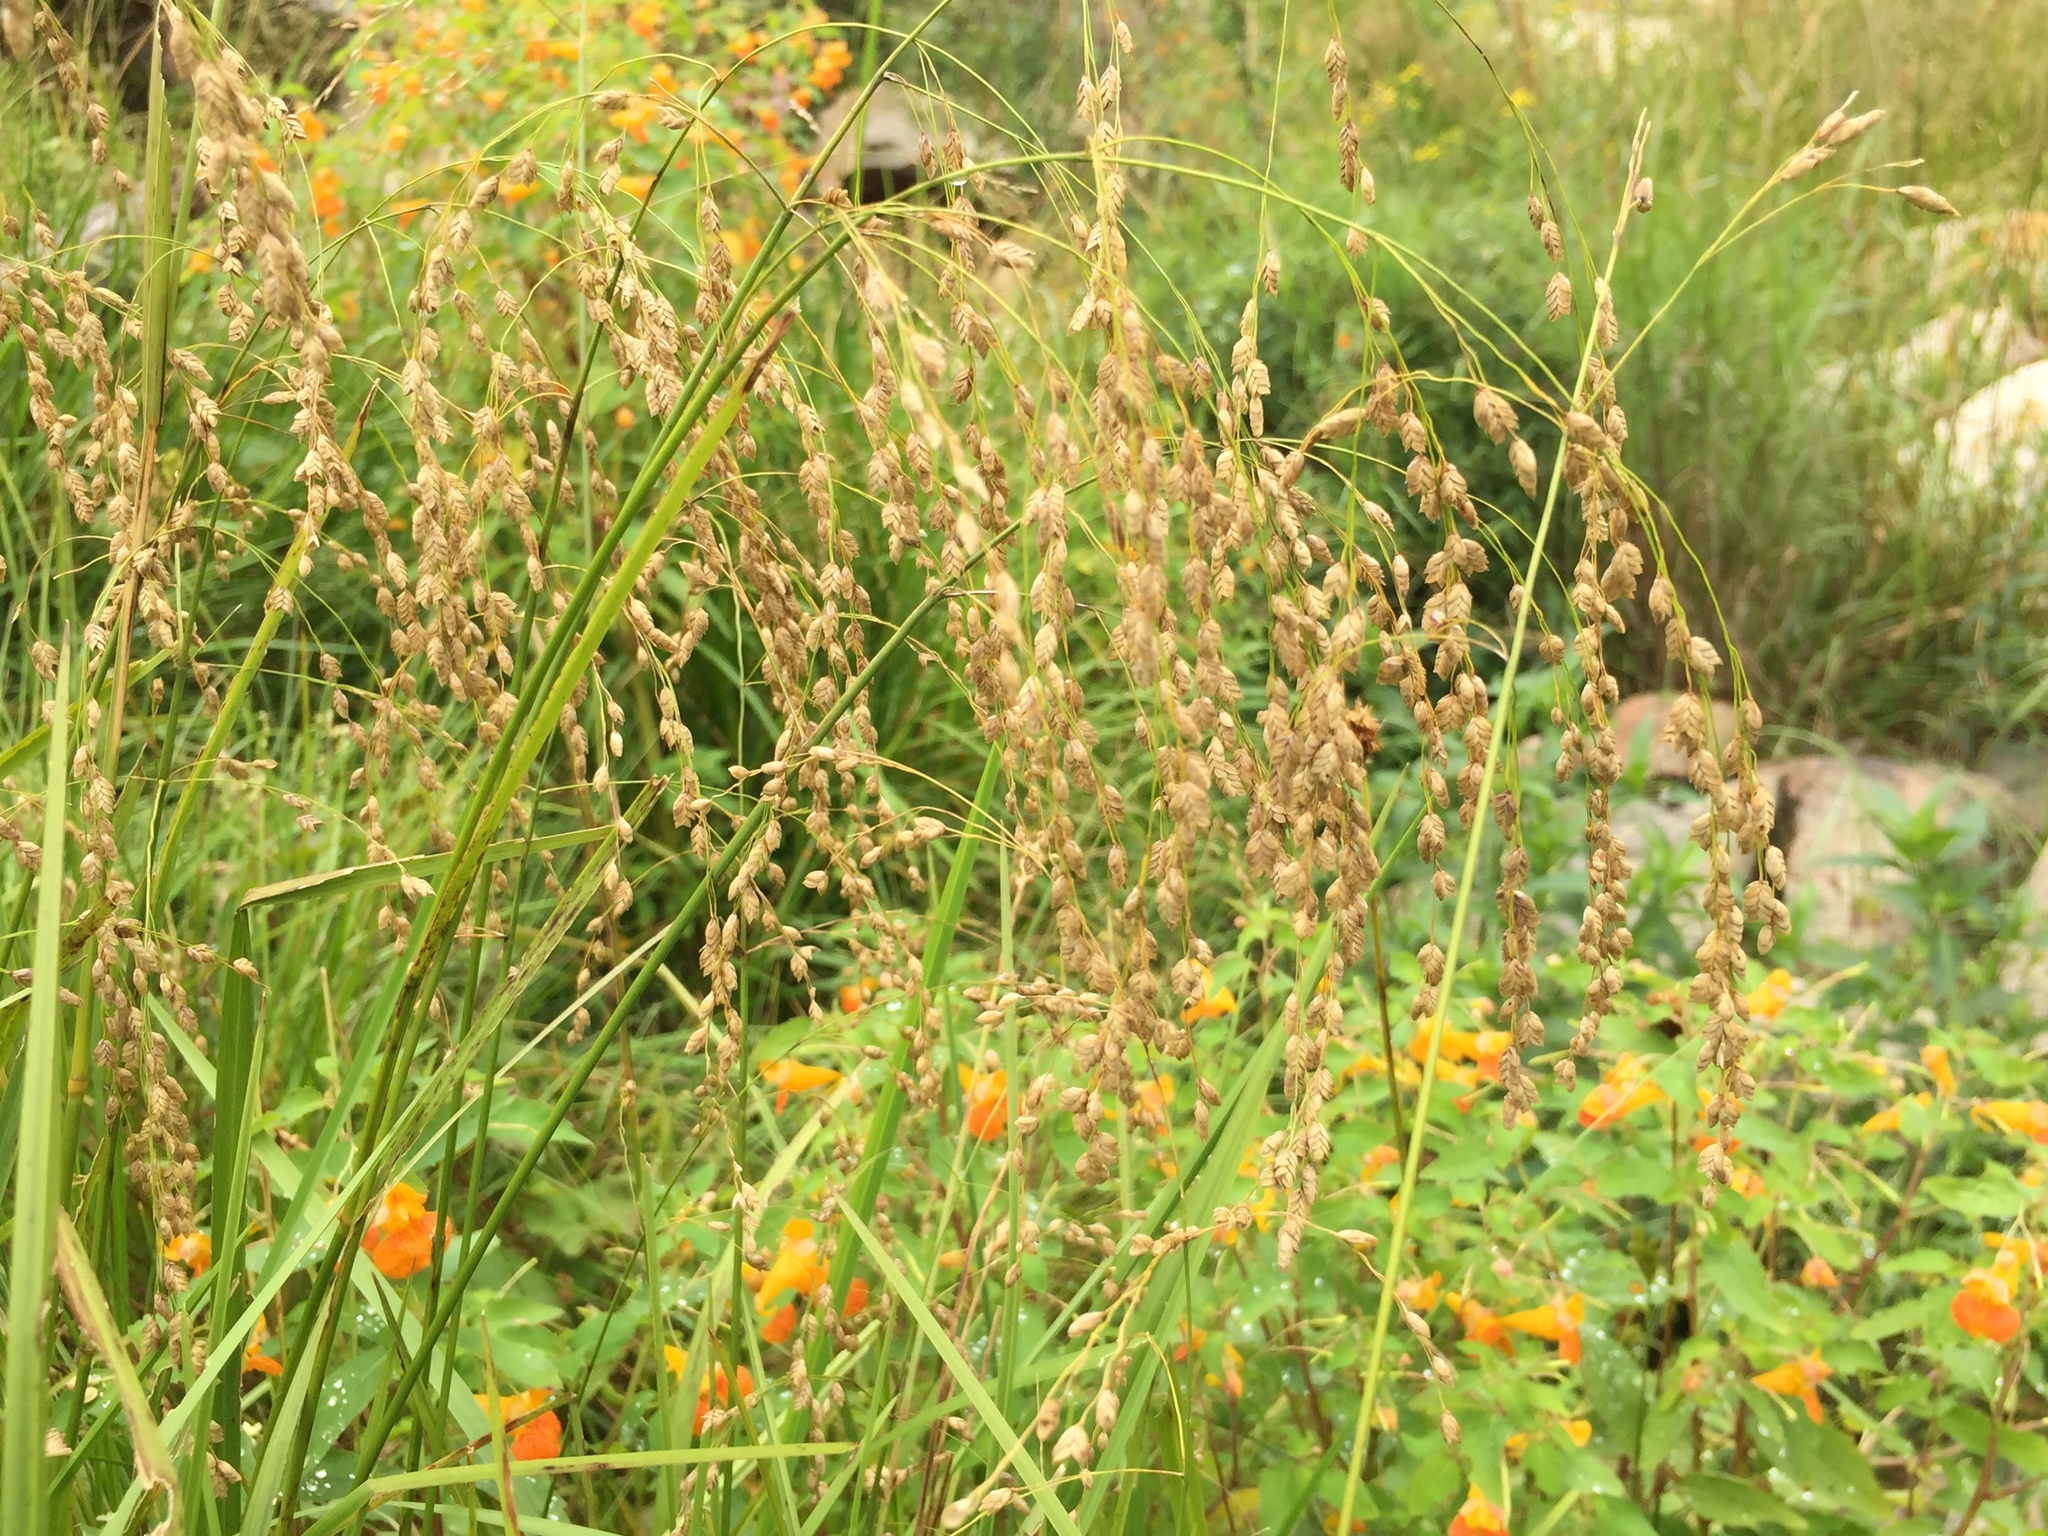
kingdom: Plantae
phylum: Tracheophyta
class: Liliopsida
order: Poales
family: Poaceae
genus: Glyceria
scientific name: Glyceria canadensis
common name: Canada mannagrass
